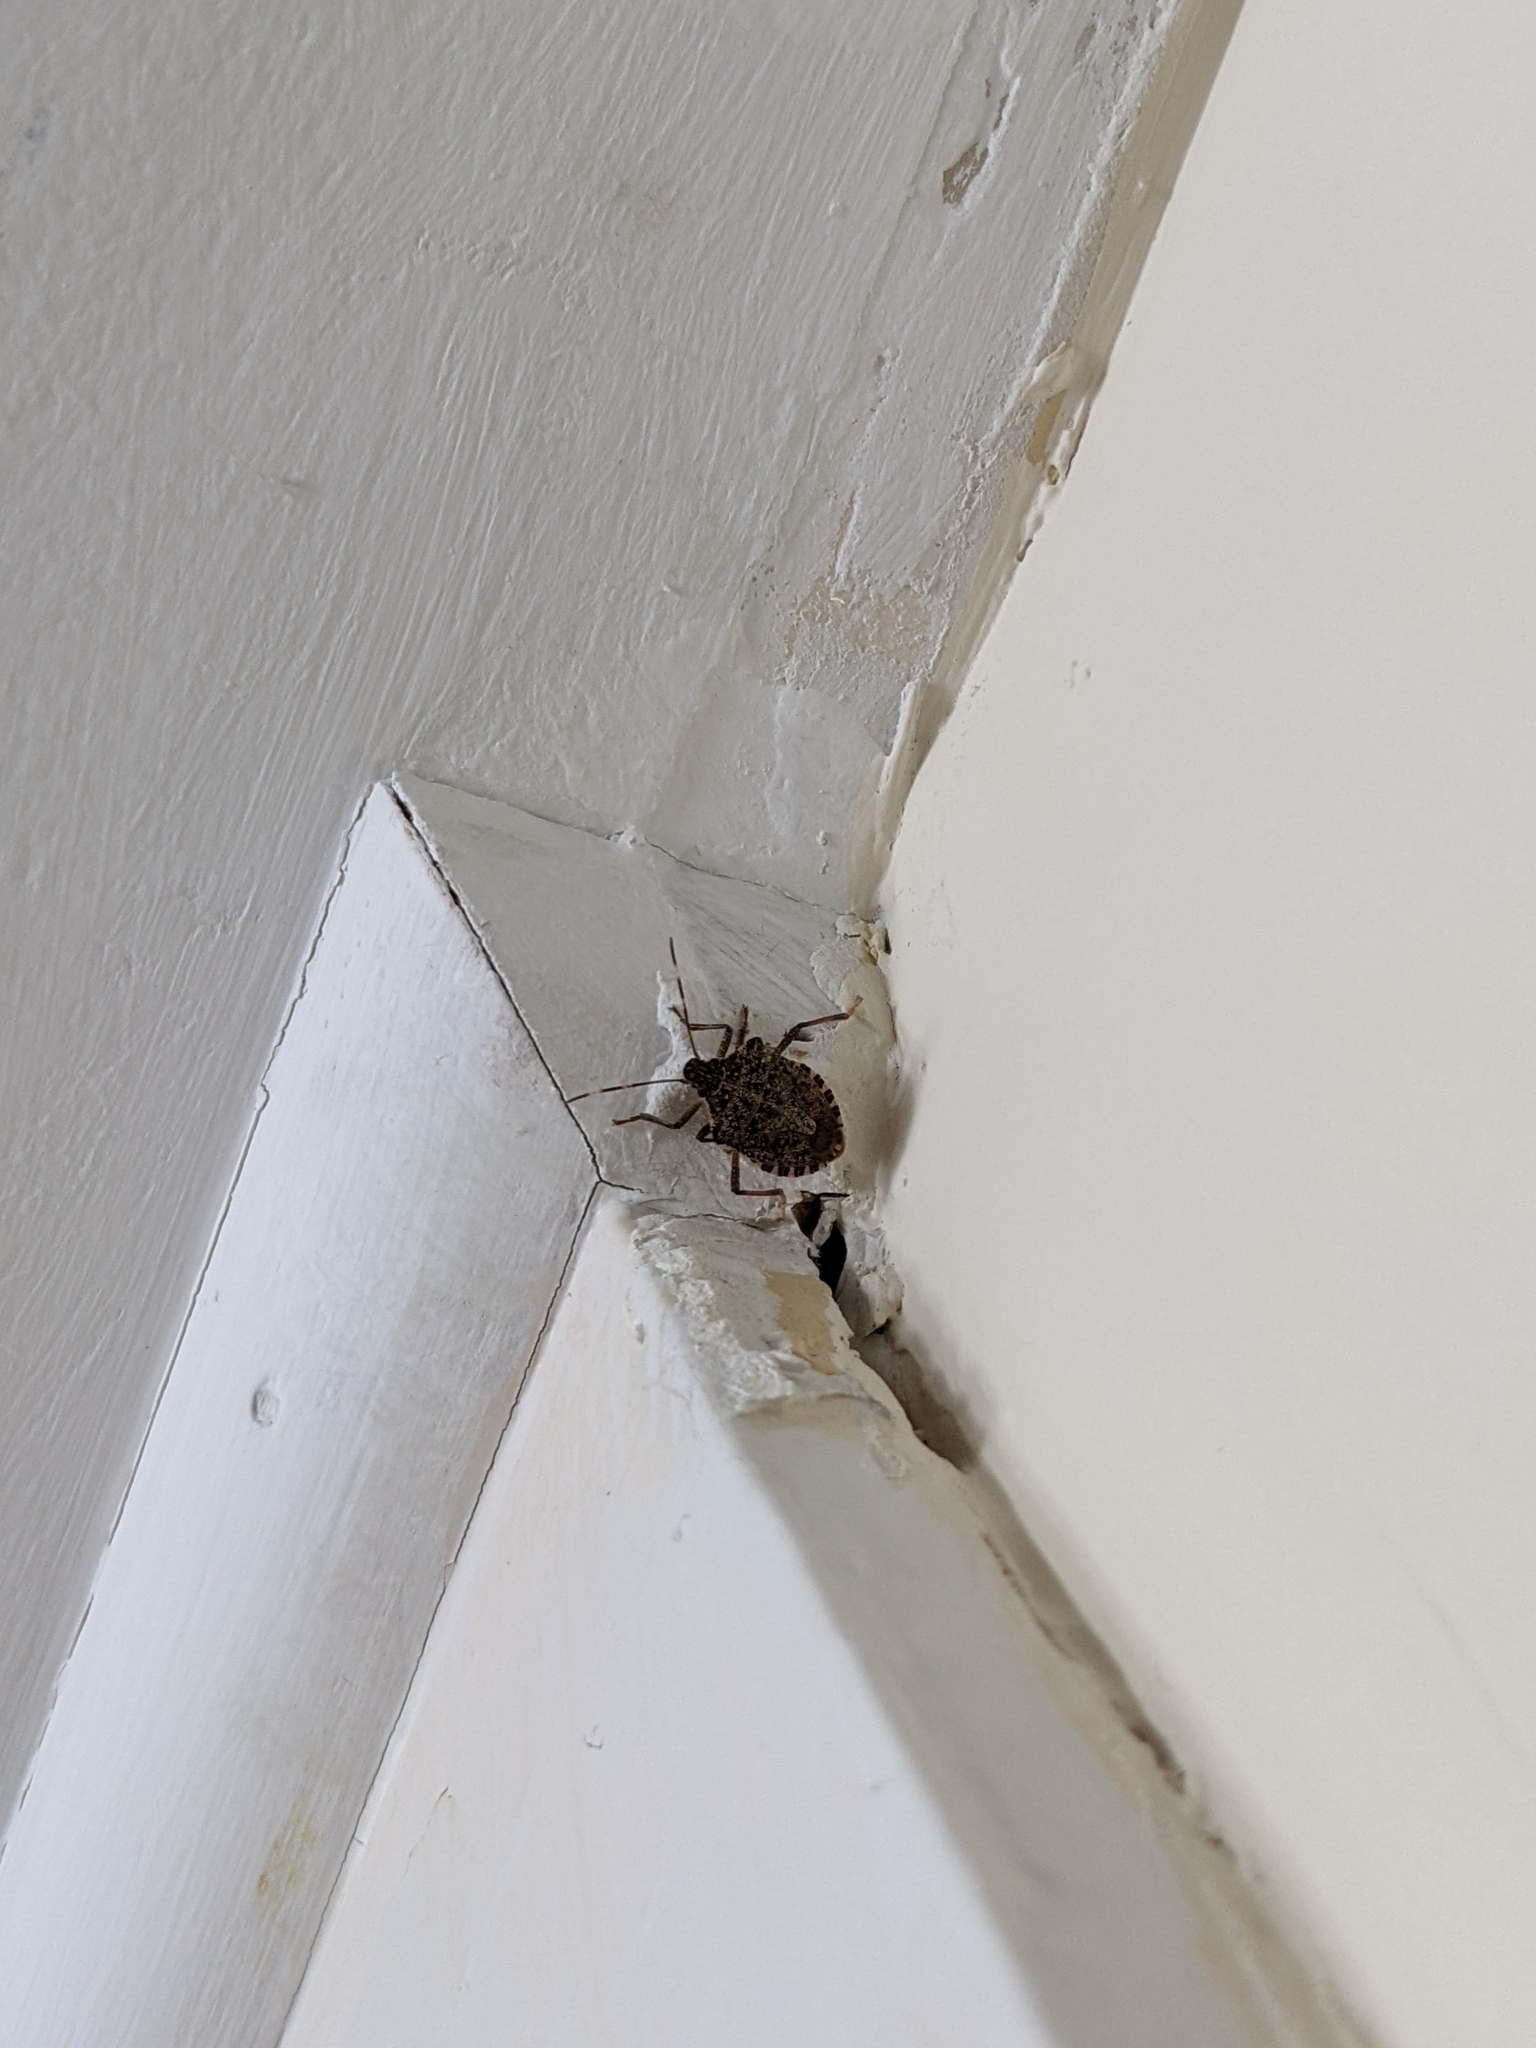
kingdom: Animalia
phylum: Arthropoda
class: Insecta
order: Hemiptera
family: Pentatomidae
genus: Halyomorpha
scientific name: Halyomorpha halys
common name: Brown marmorated stink bug
